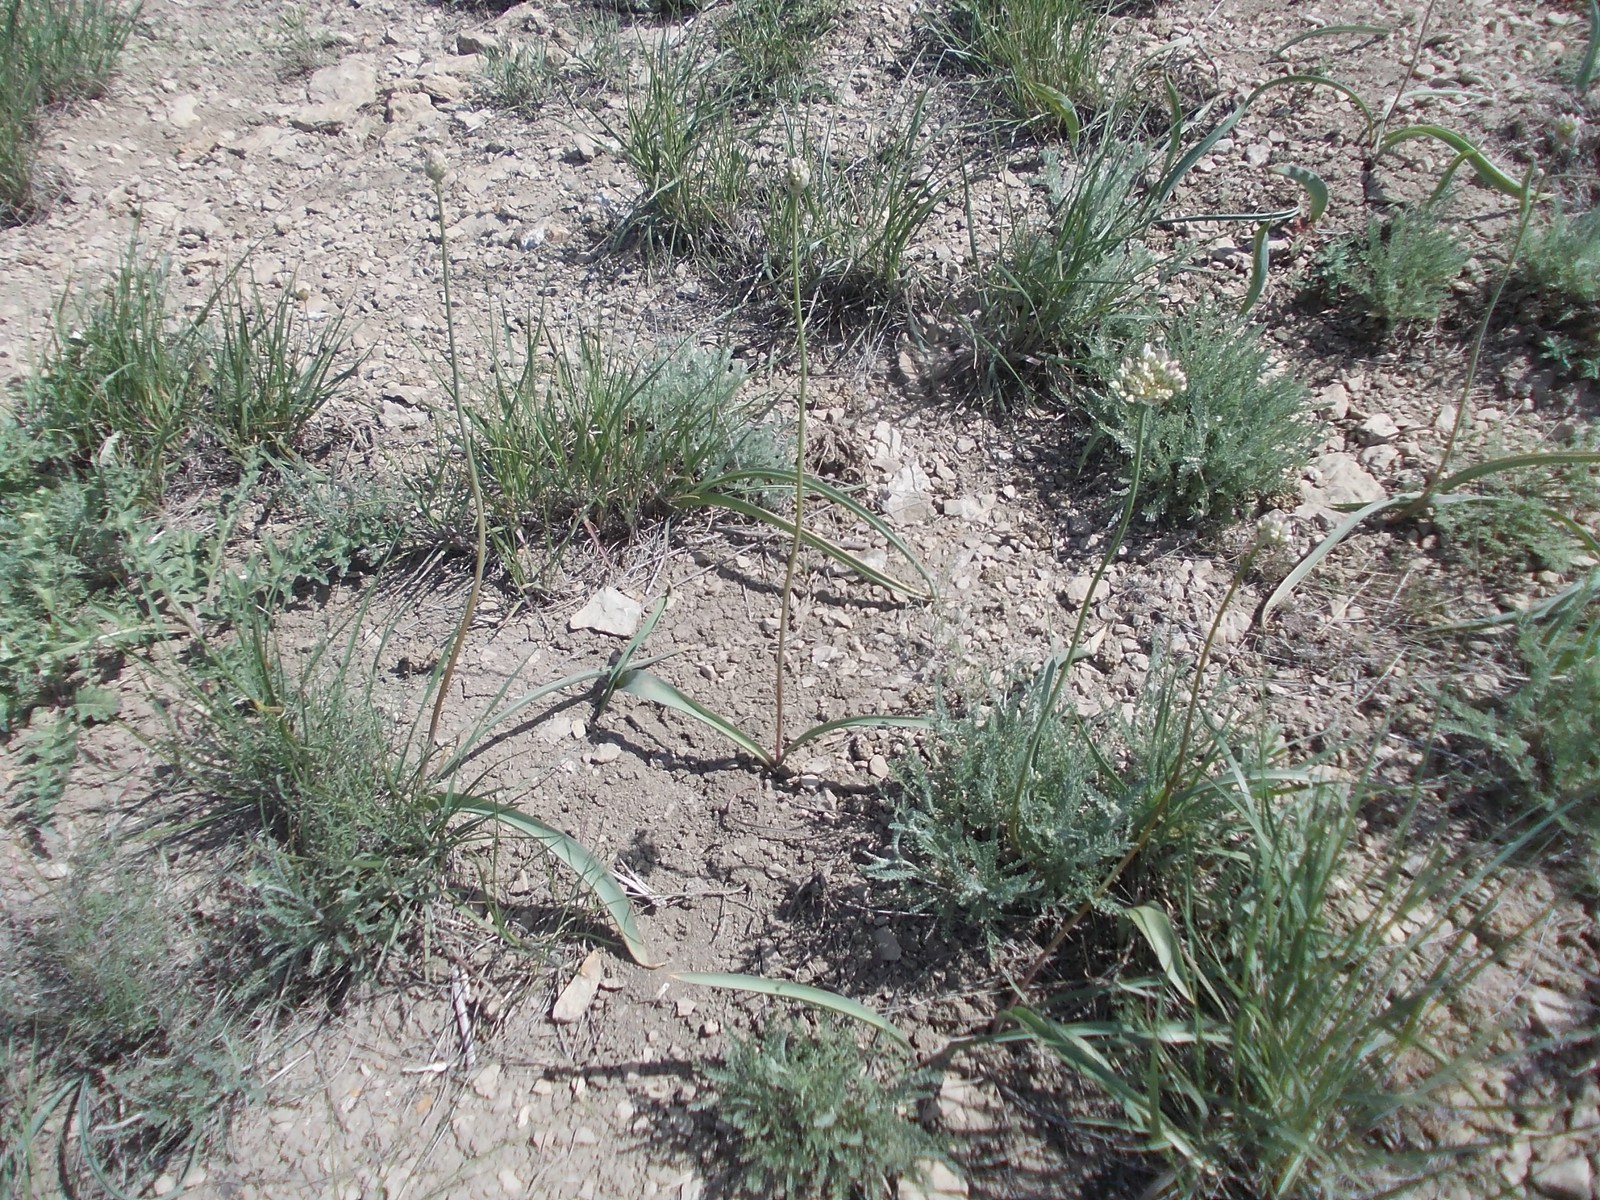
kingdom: Plantae
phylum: Tracheophyta
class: Liliopsida
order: Asparagales
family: Amaryllidaceae
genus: Allium
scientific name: Allium tulipifolium
